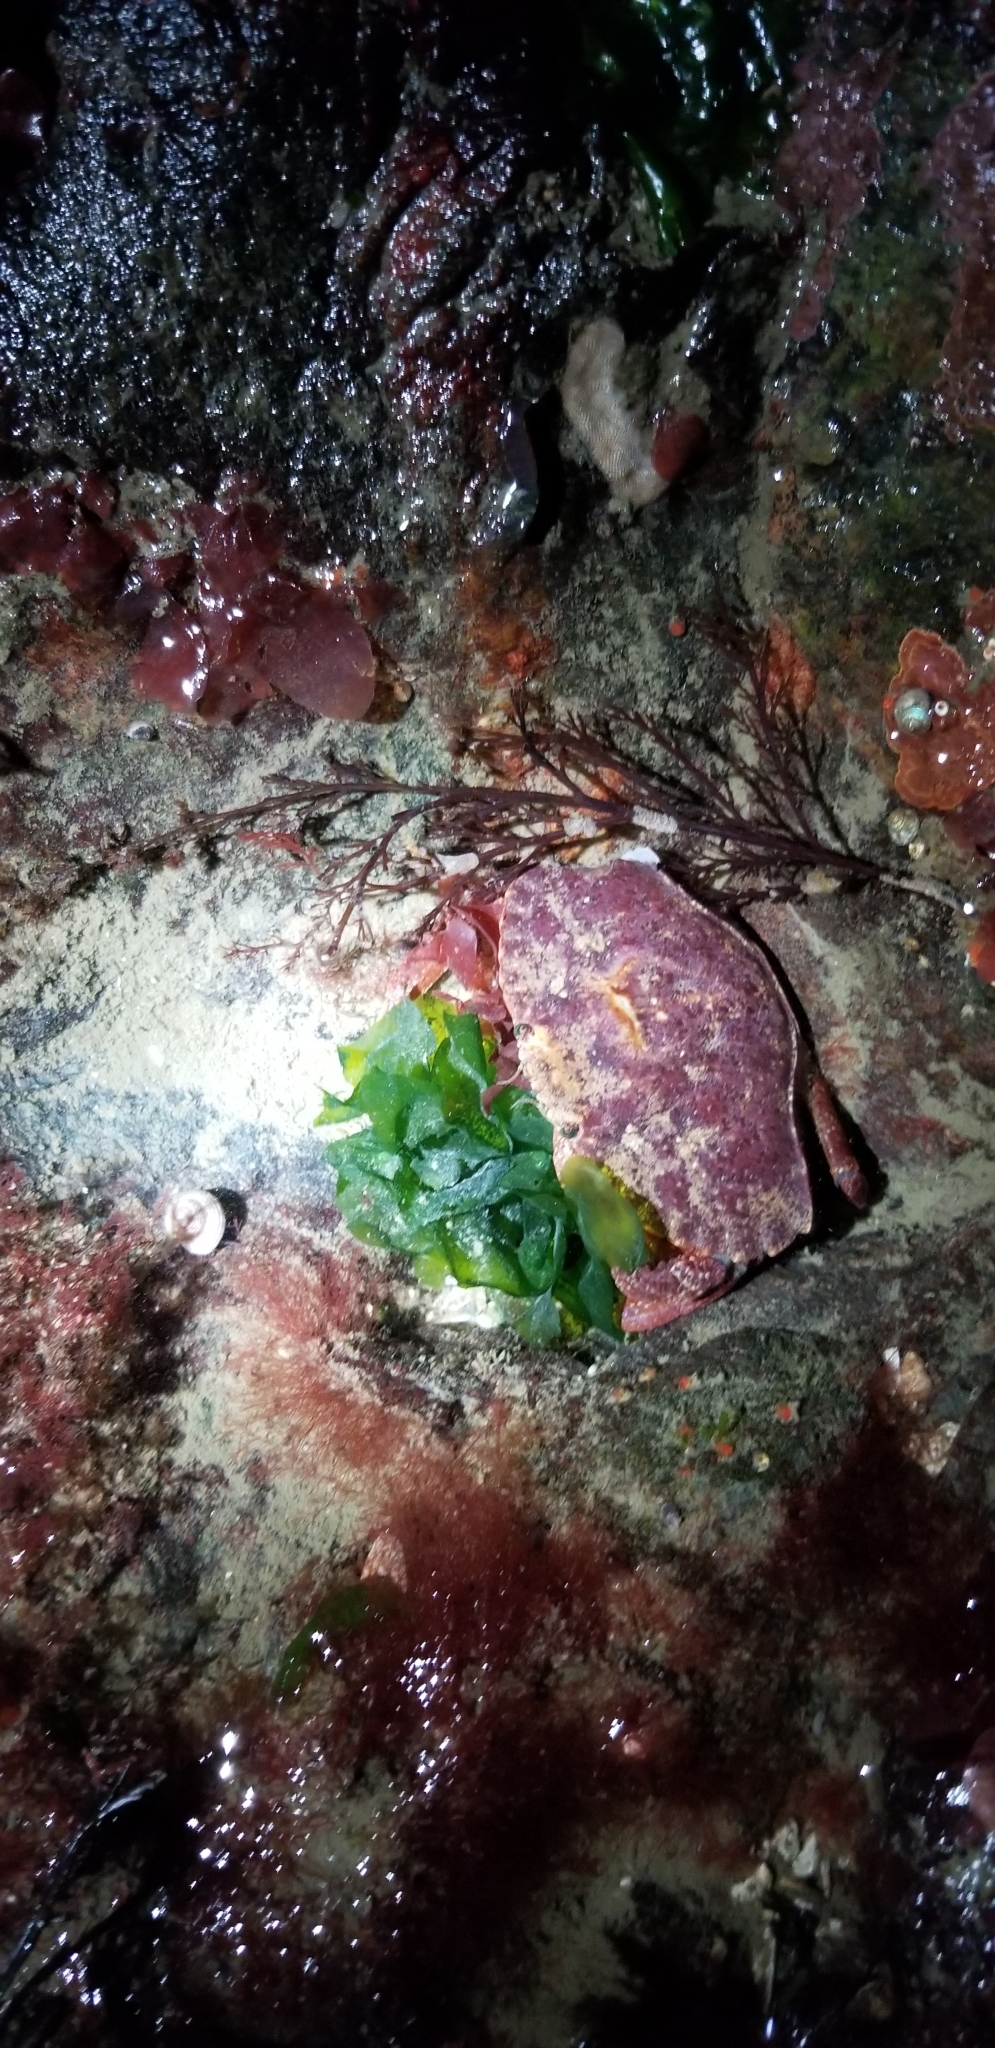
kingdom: Animalia
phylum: Arthropoda
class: Malacostraca
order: Decapoda
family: Cancridae
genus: Cancer
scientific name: Cancer productus
